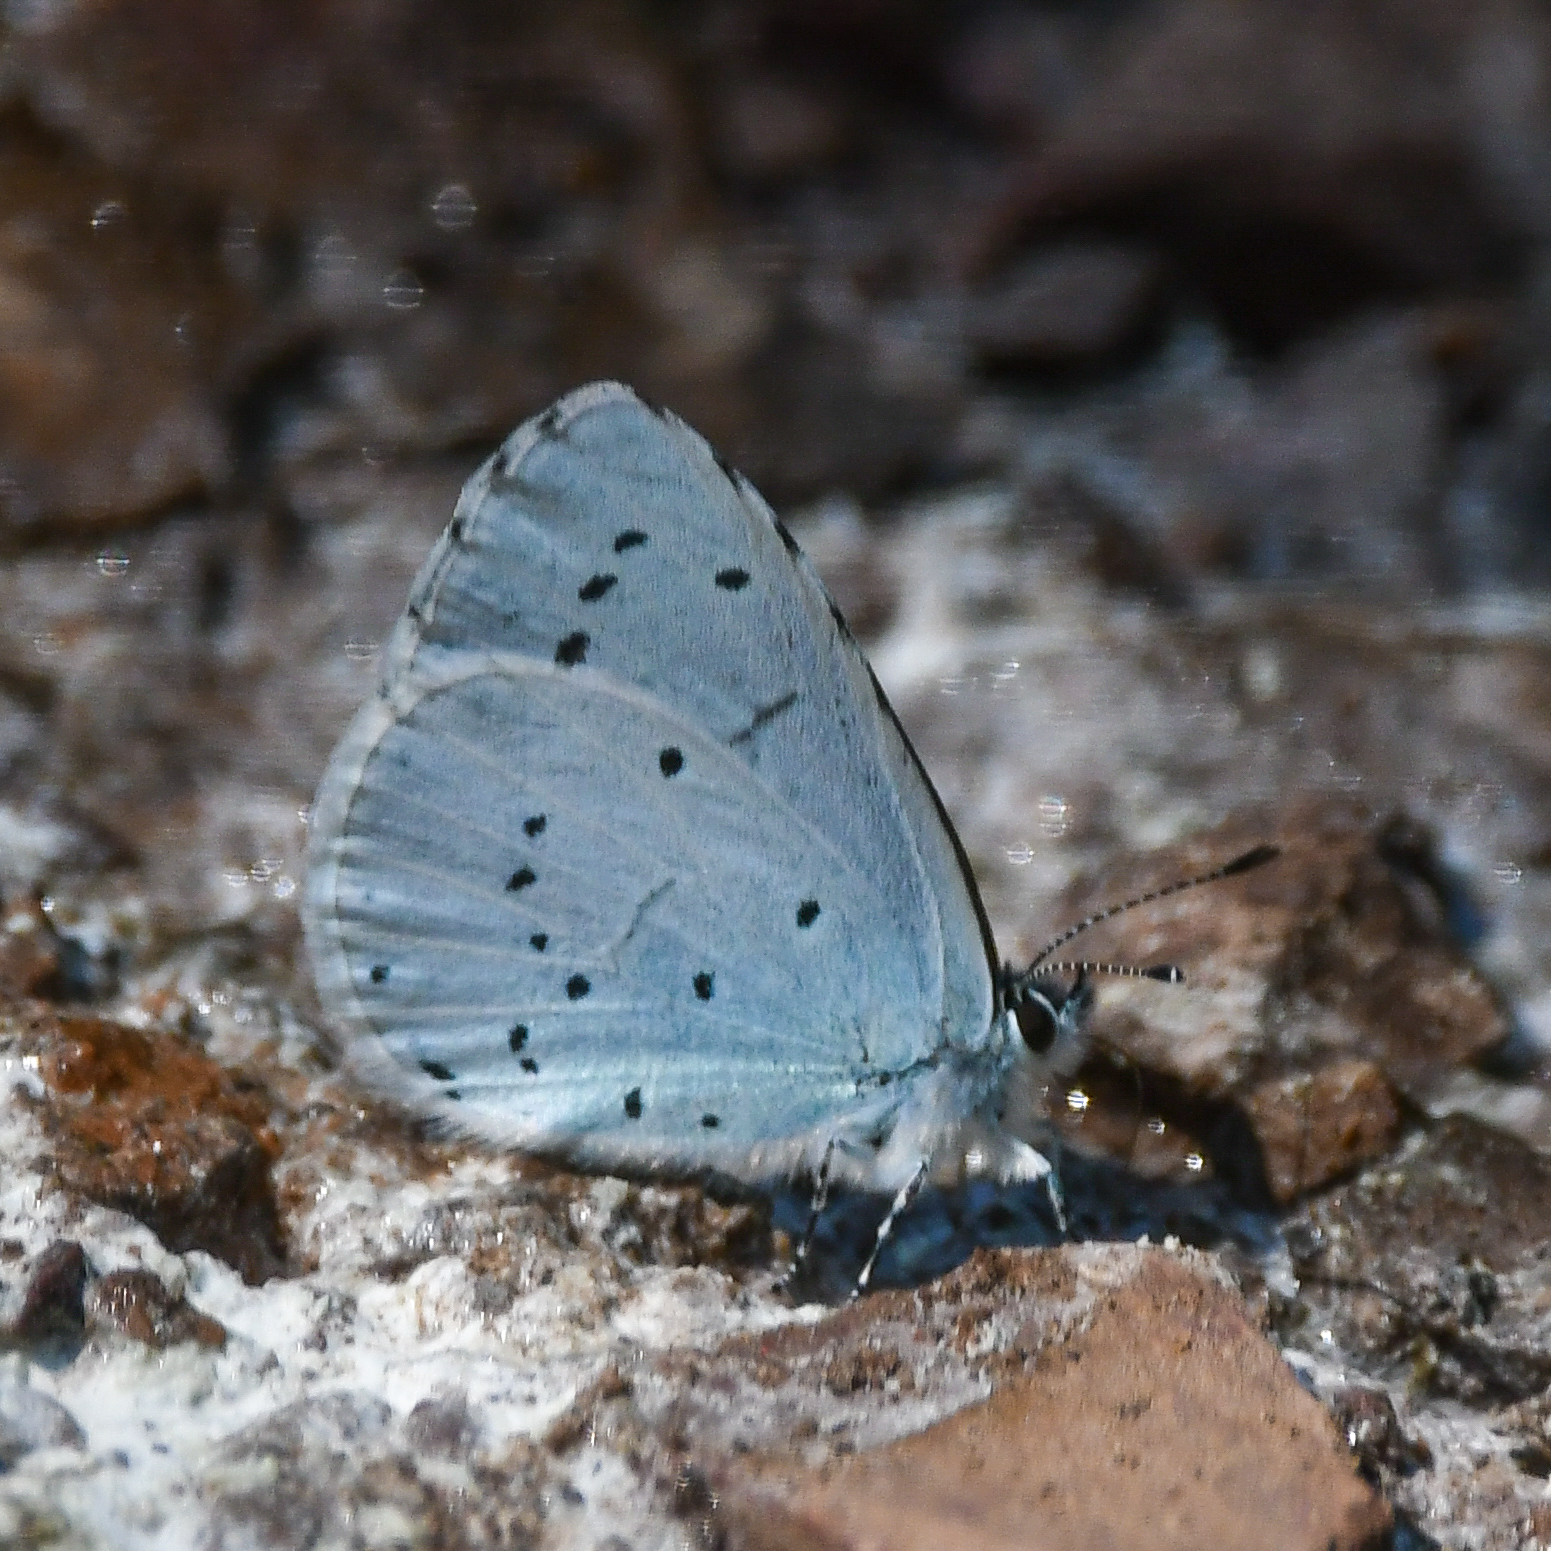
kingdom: Animalia
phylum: Arthropoda
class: Insecta
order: Lepidoptera
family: Lycaenidae
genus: Celastrina
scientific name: Celastrina argiolus
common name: Holly blue
